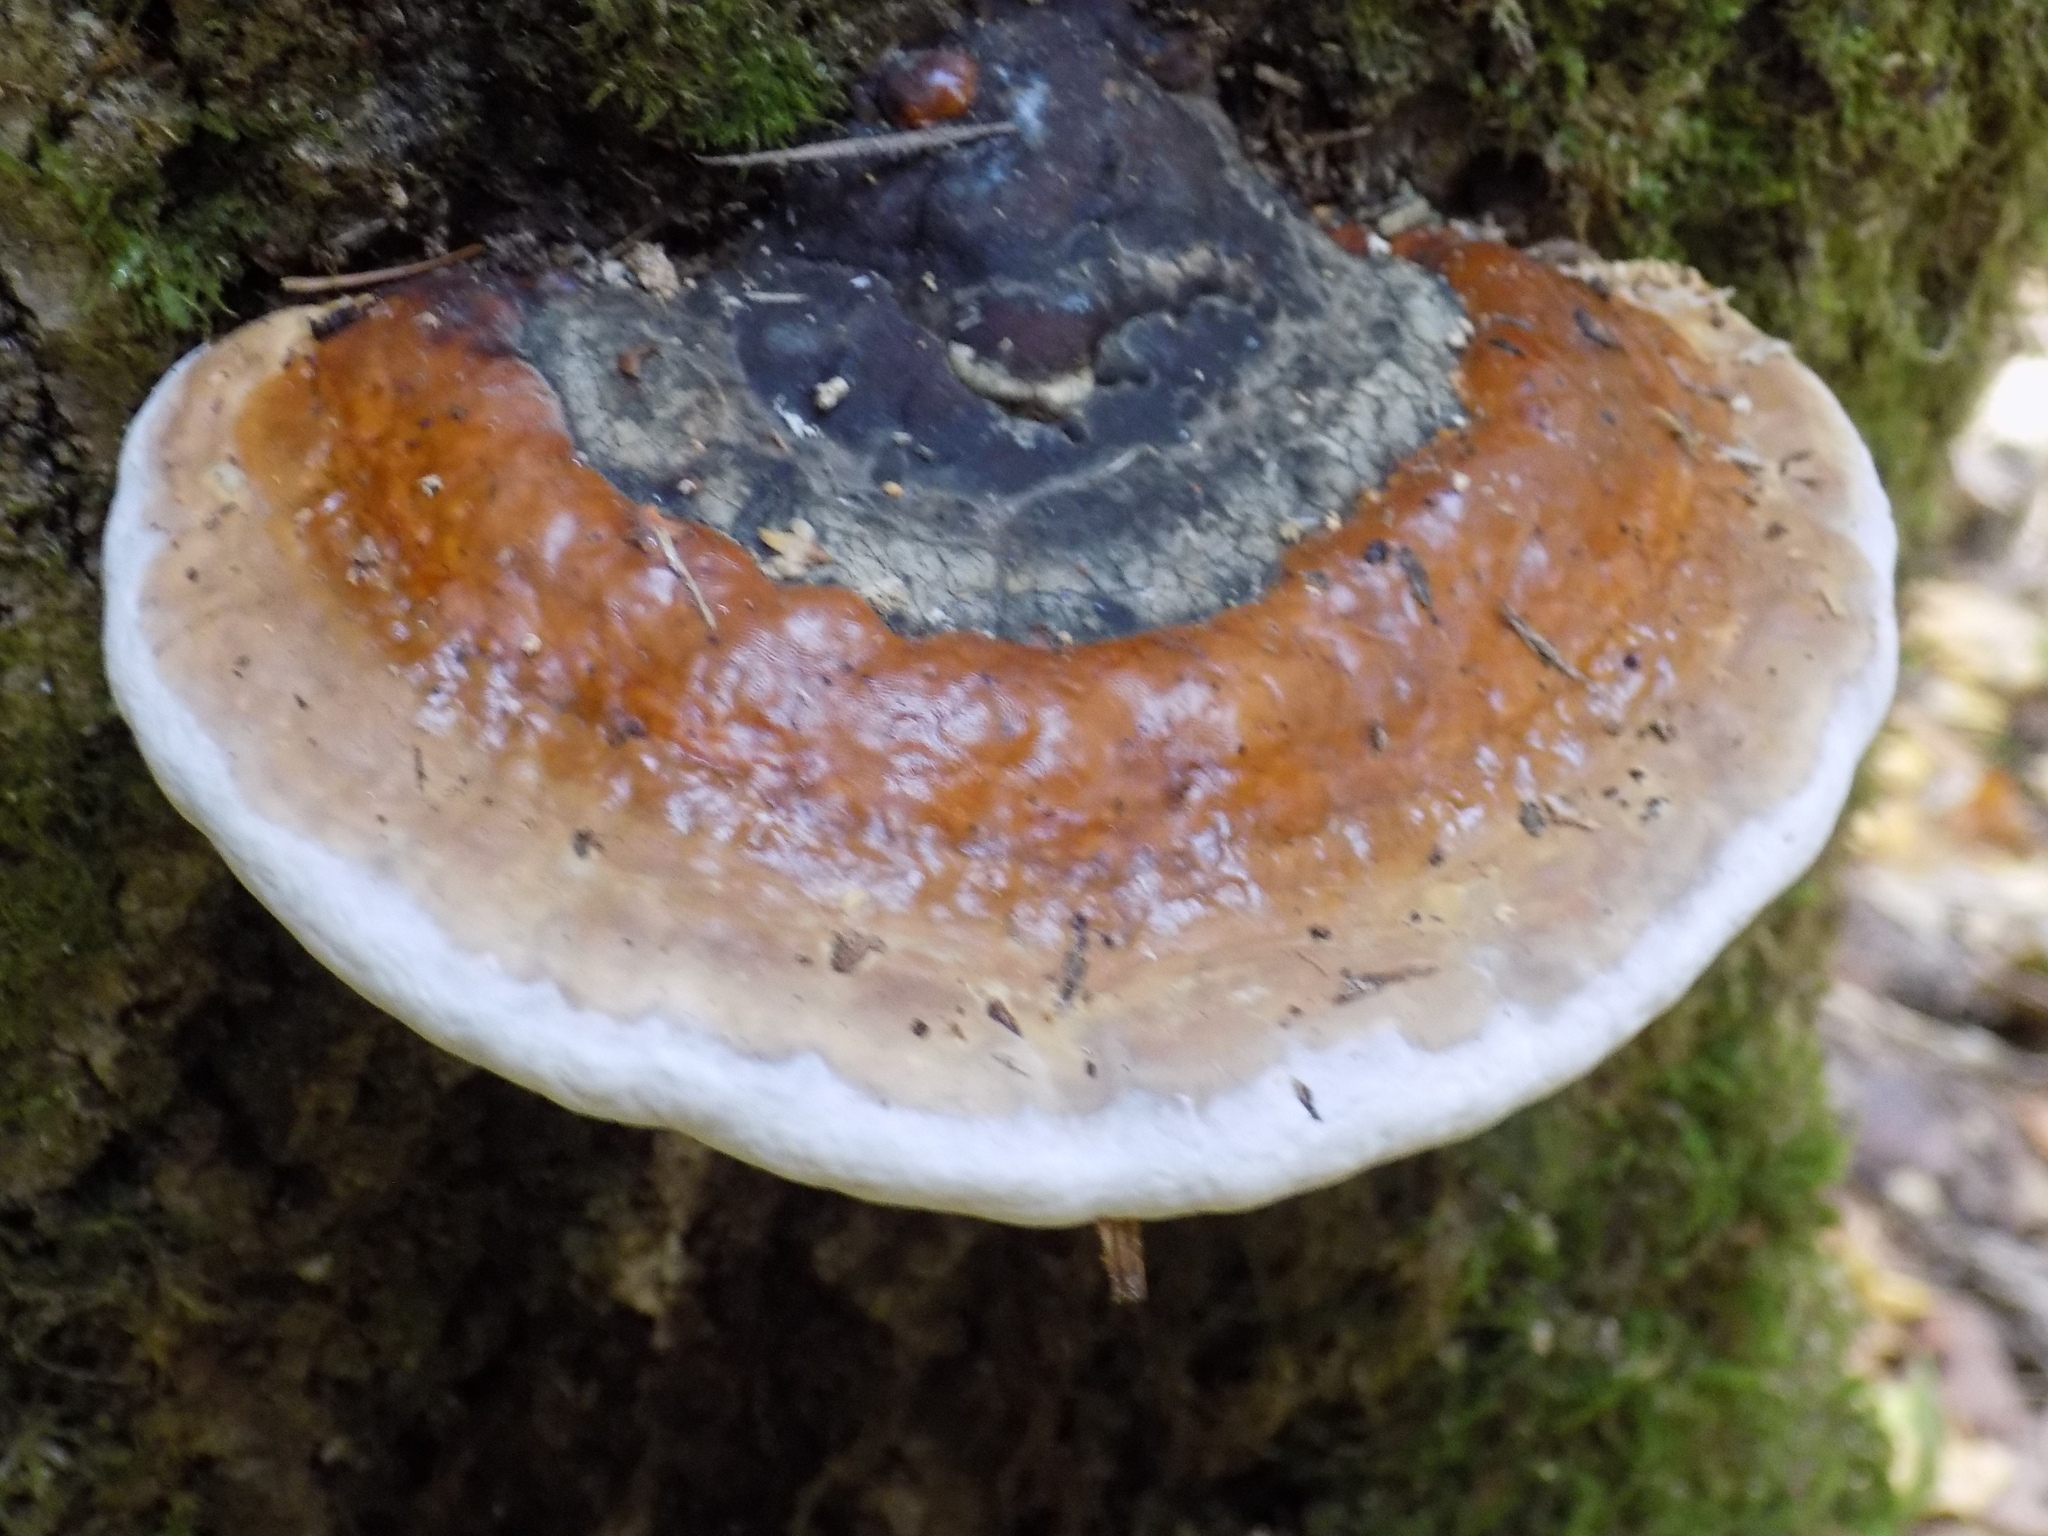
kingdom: Fungi
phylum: Basidiomycota
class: Agaricomycetes
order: Polyporales
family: Fomitopsidaceae
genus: Fomitopsis
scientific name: Fomitopsis pinicola
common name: Red-belted bracket
